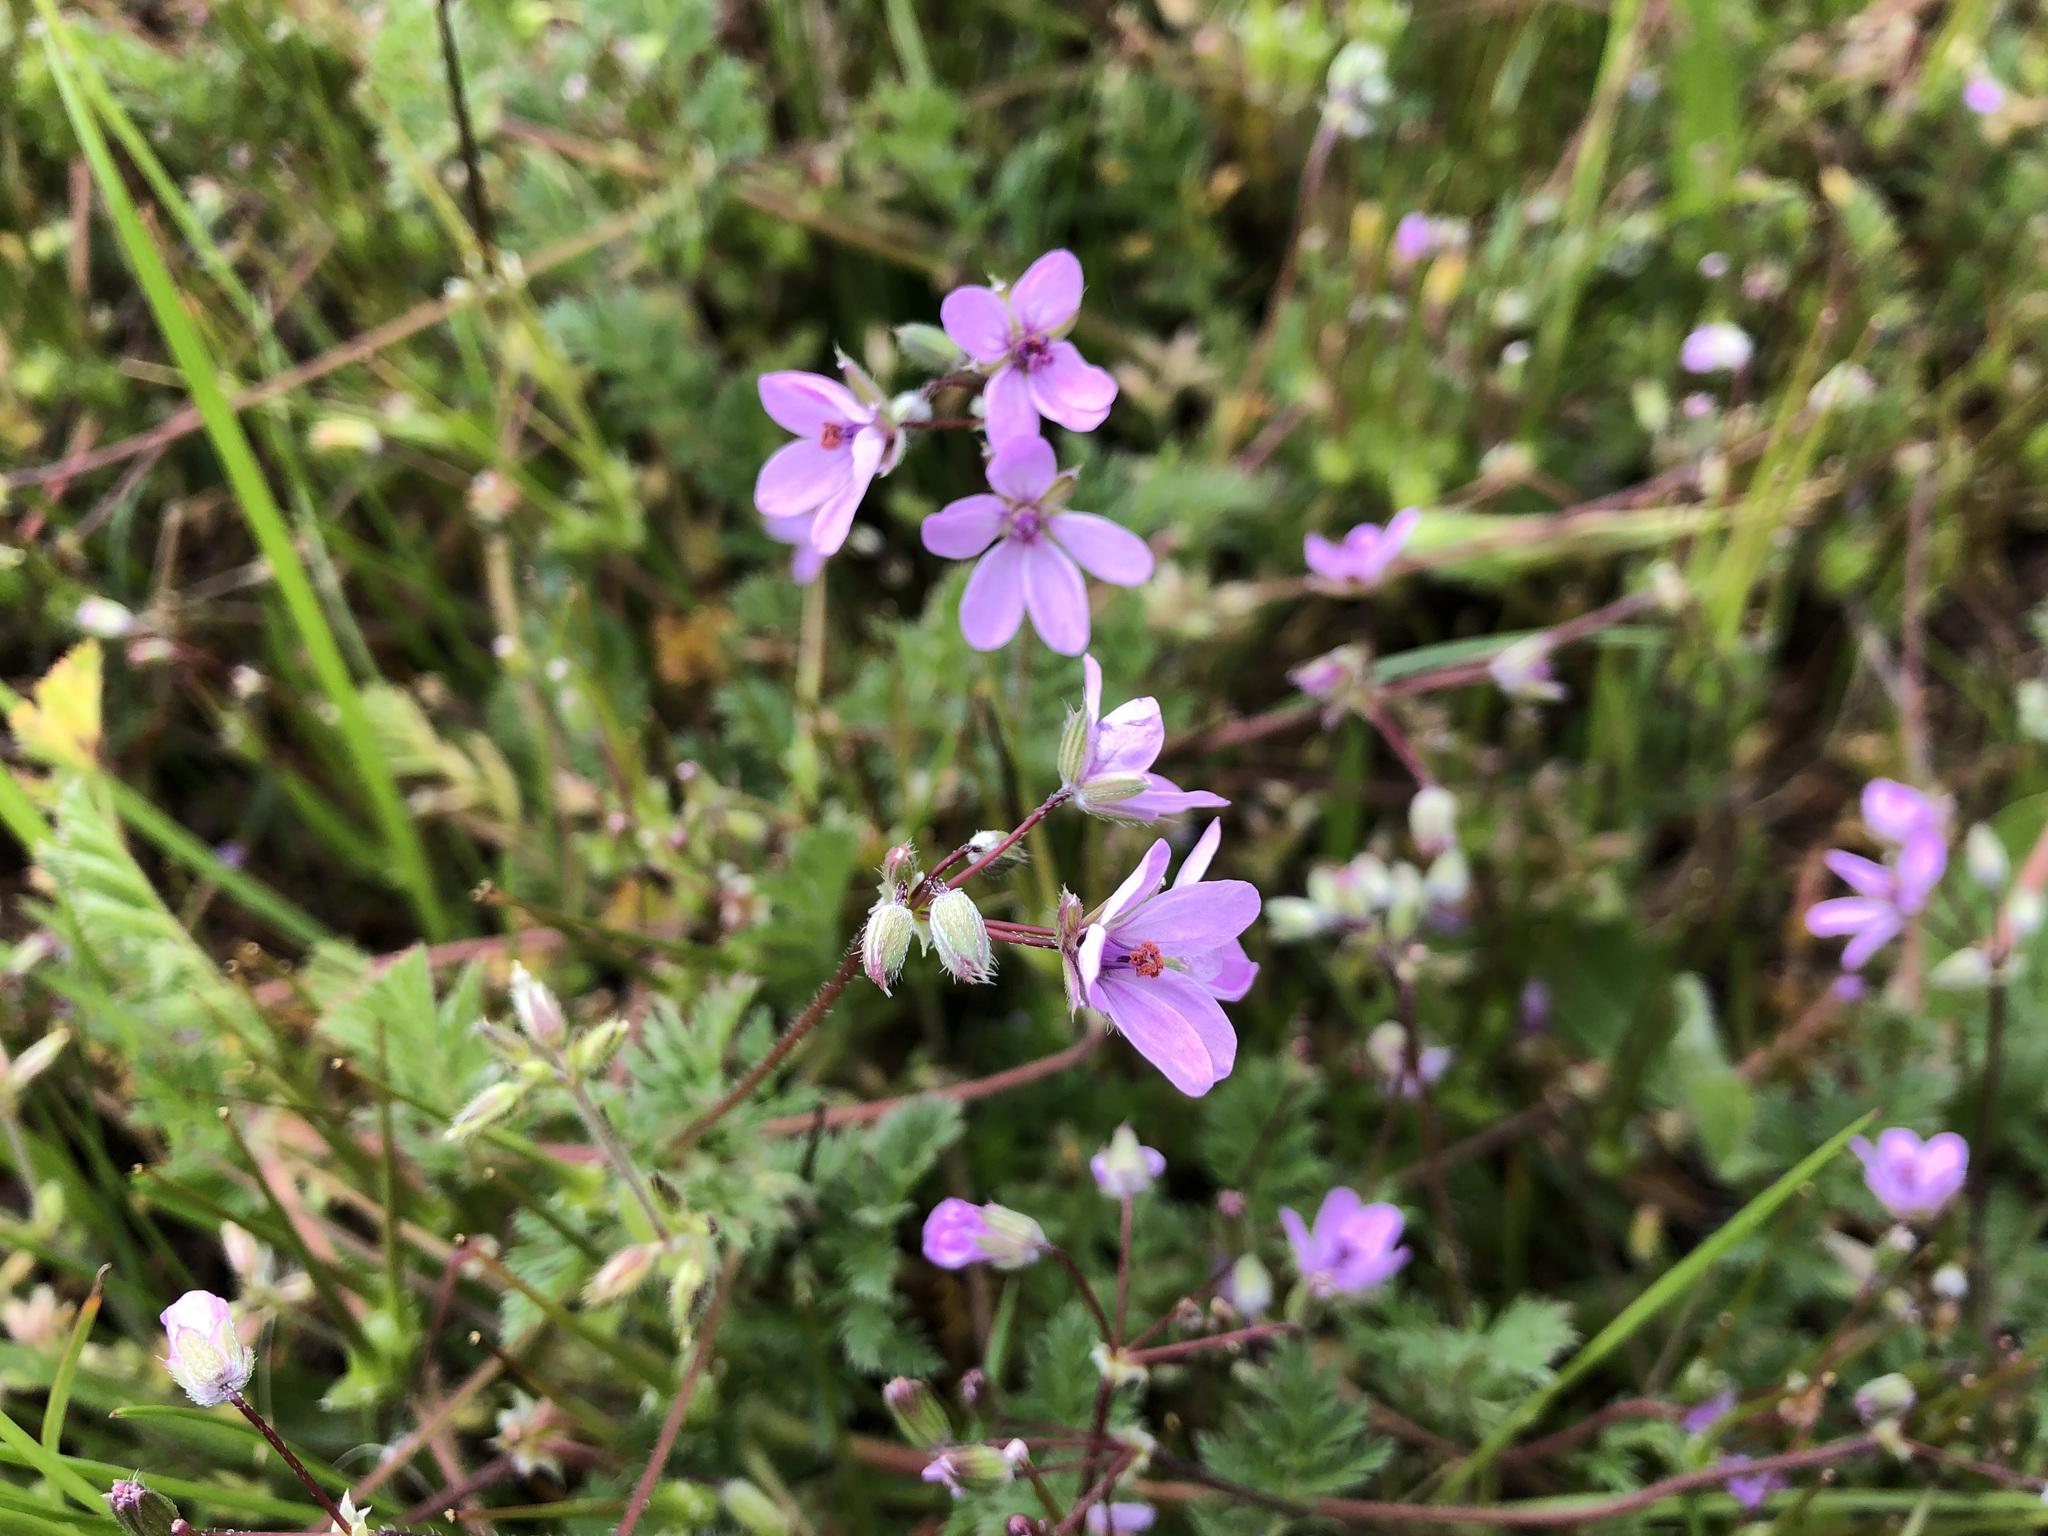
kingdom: Plantae
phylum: Tracheophyta
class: Magnoliopsida
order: Geraniales
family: Geraniaceae
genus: Erodium
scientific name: Erodium cicutarium
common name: Common stork's-bill
